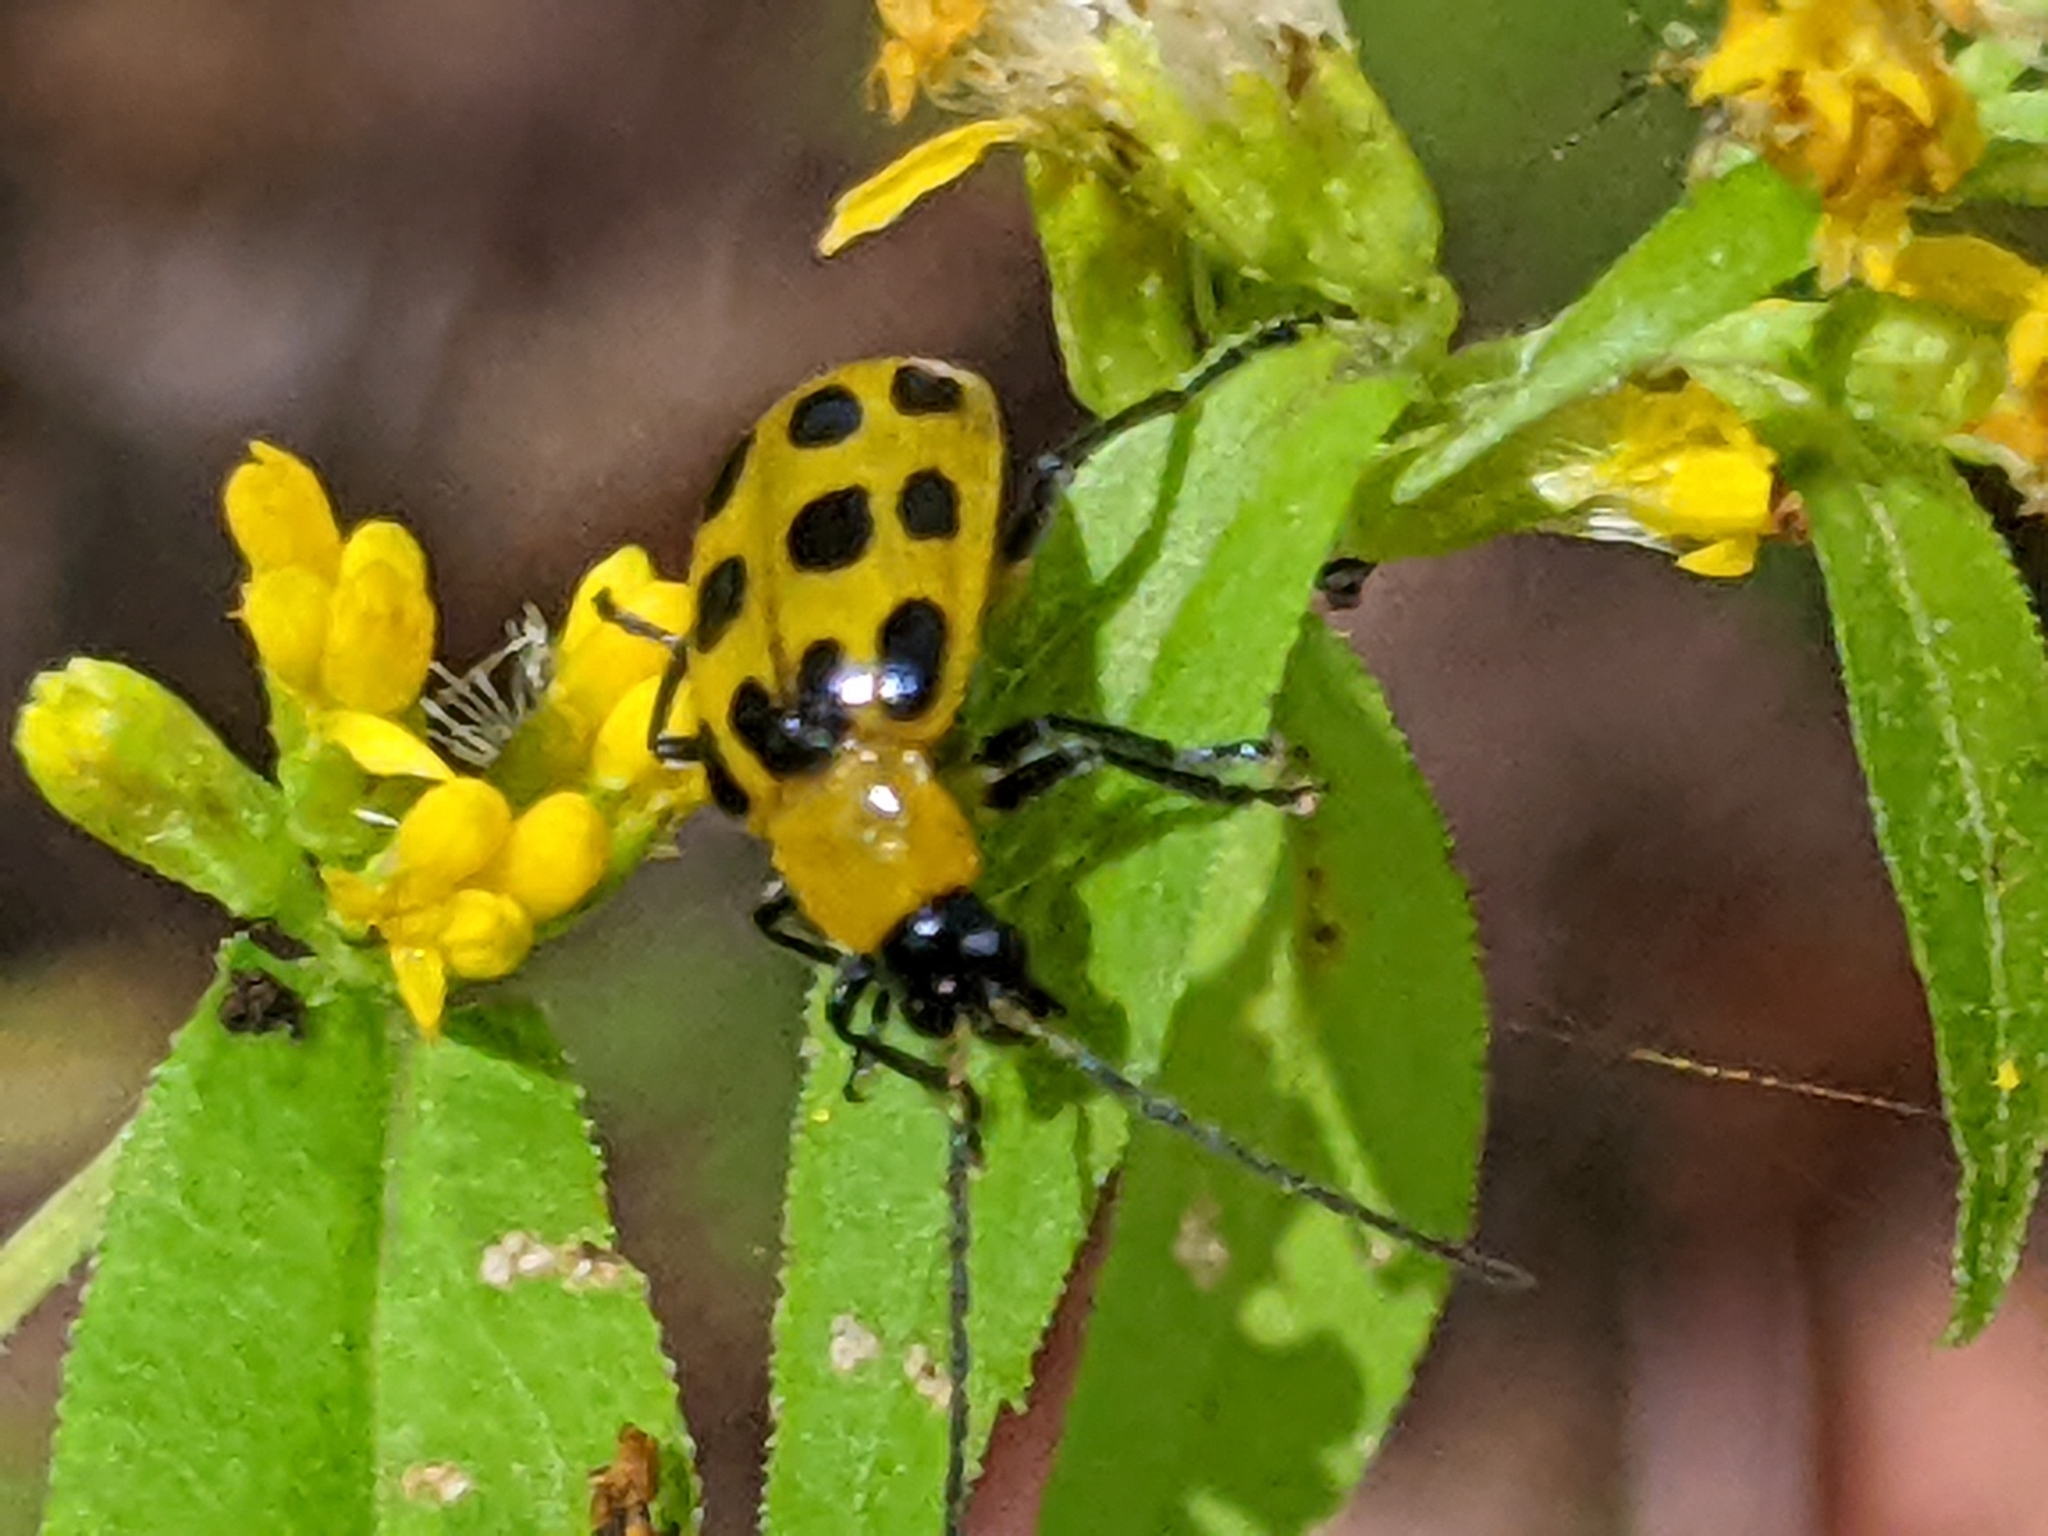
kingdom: Animalia
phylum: Arthropoda
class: Insecta
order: Coleoptera
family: Chrysomelidae
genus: Diabrotica
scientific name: Diabrotica undecimpunctata
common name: Spotted cucumber beetle
